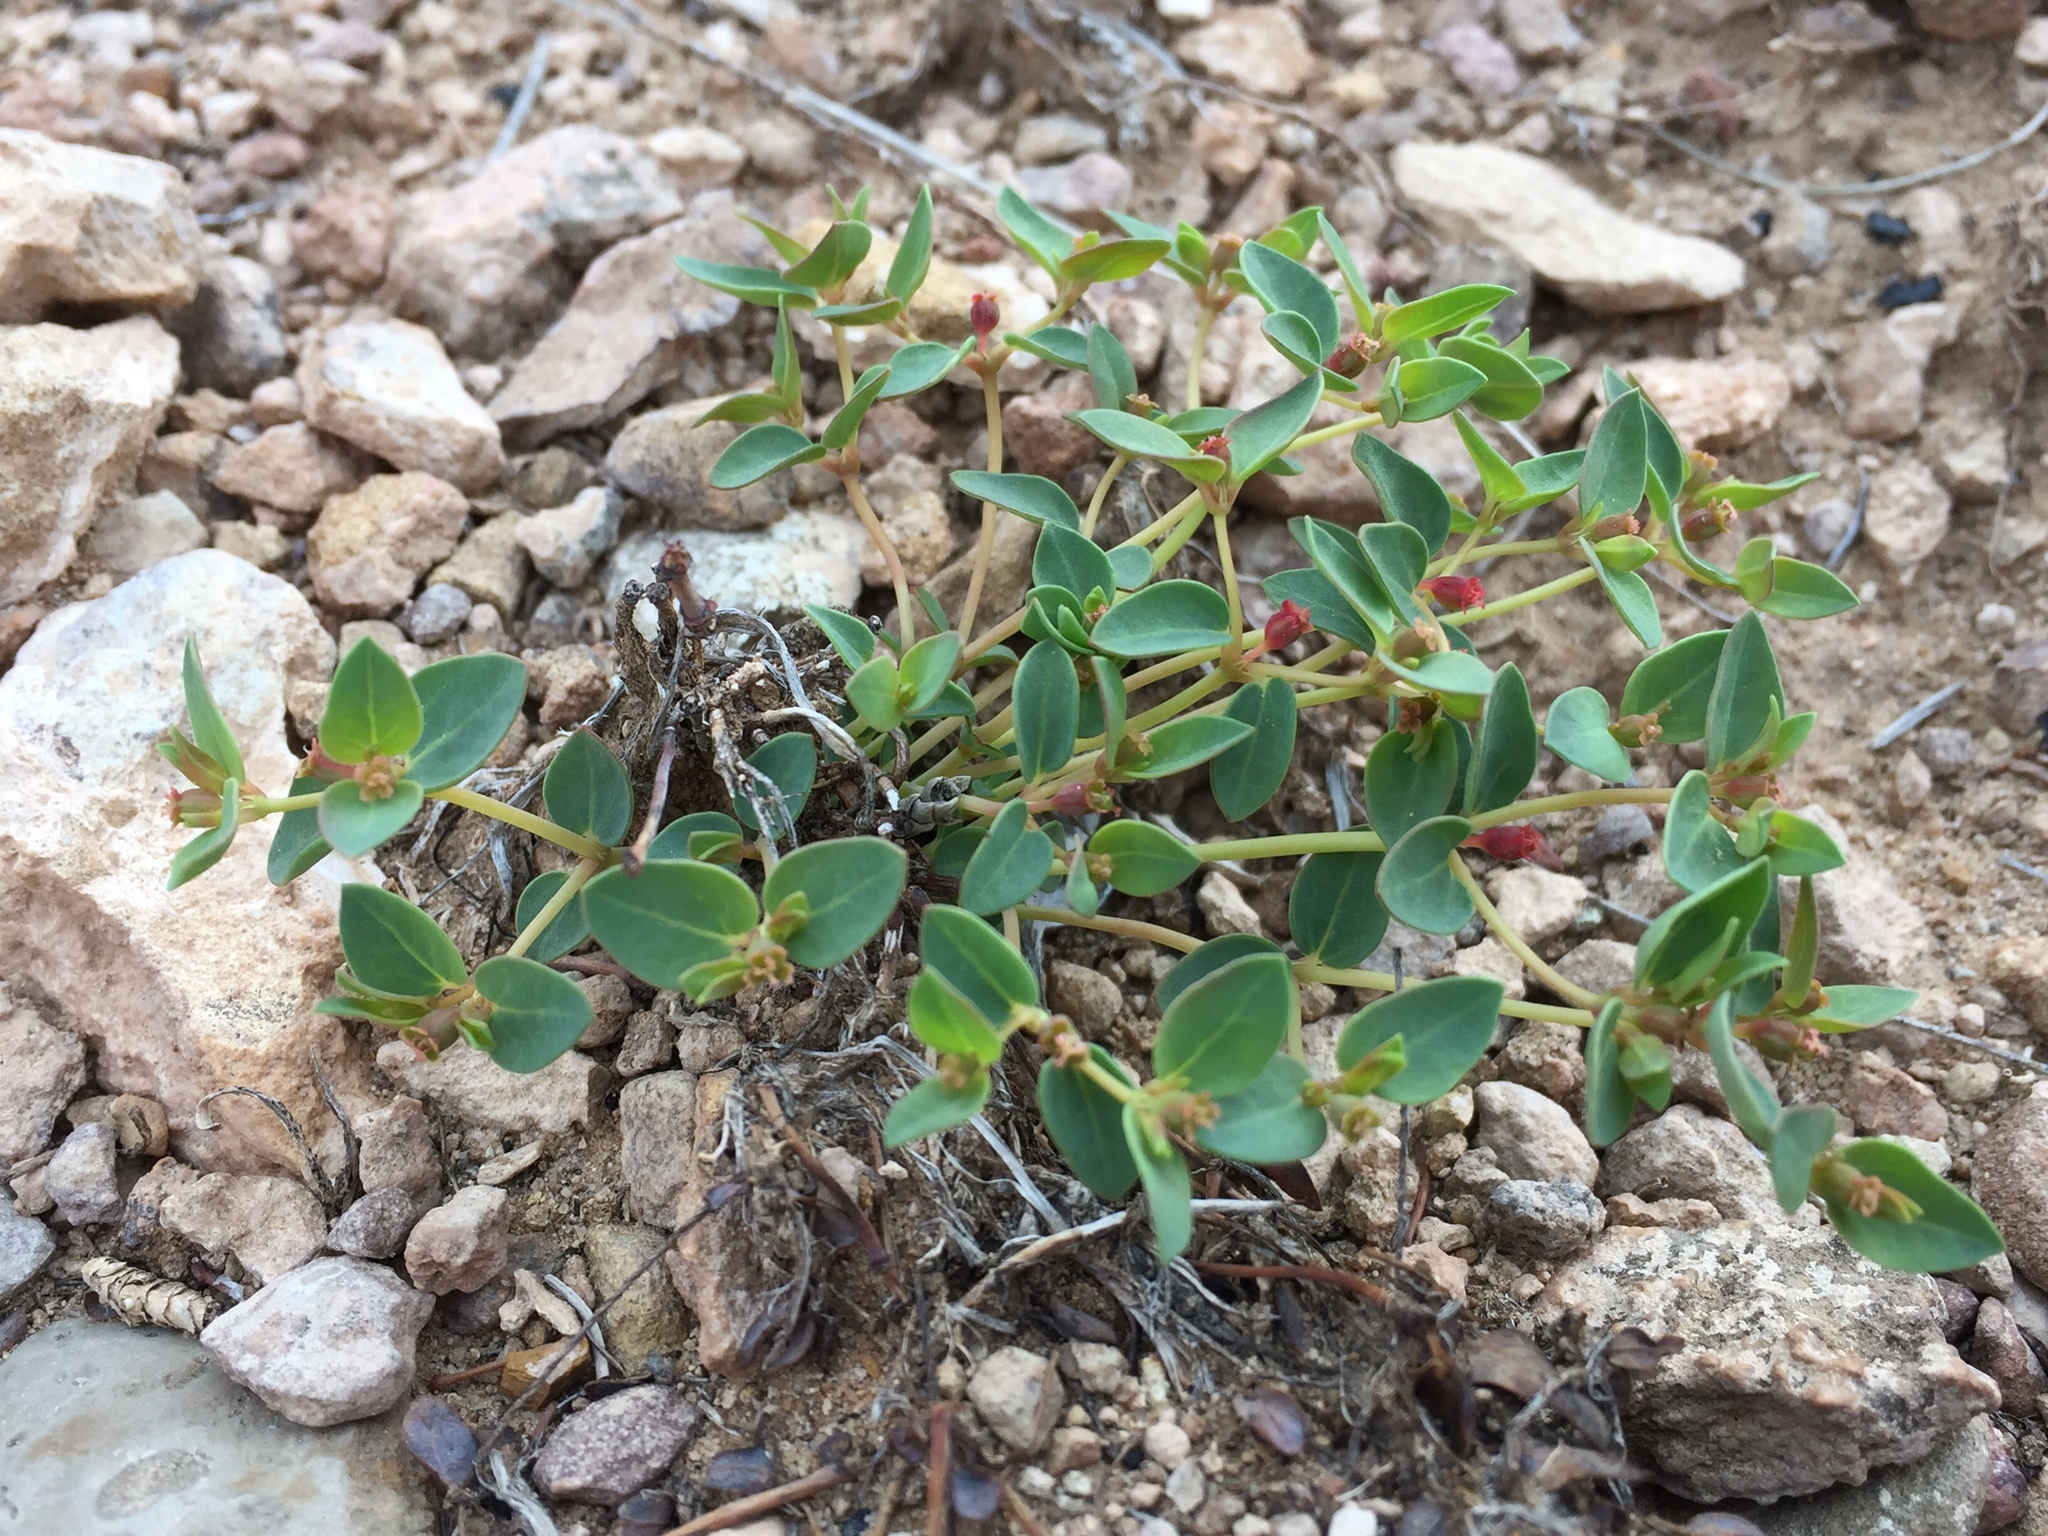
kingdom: Plantae
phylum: Tracheophyta
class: Magnoliopsida
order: Malpighiales
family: Euphorbiaceae
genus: Euphorbia
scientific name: Euphorbia fendleri
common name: Fendler's euphorbia
